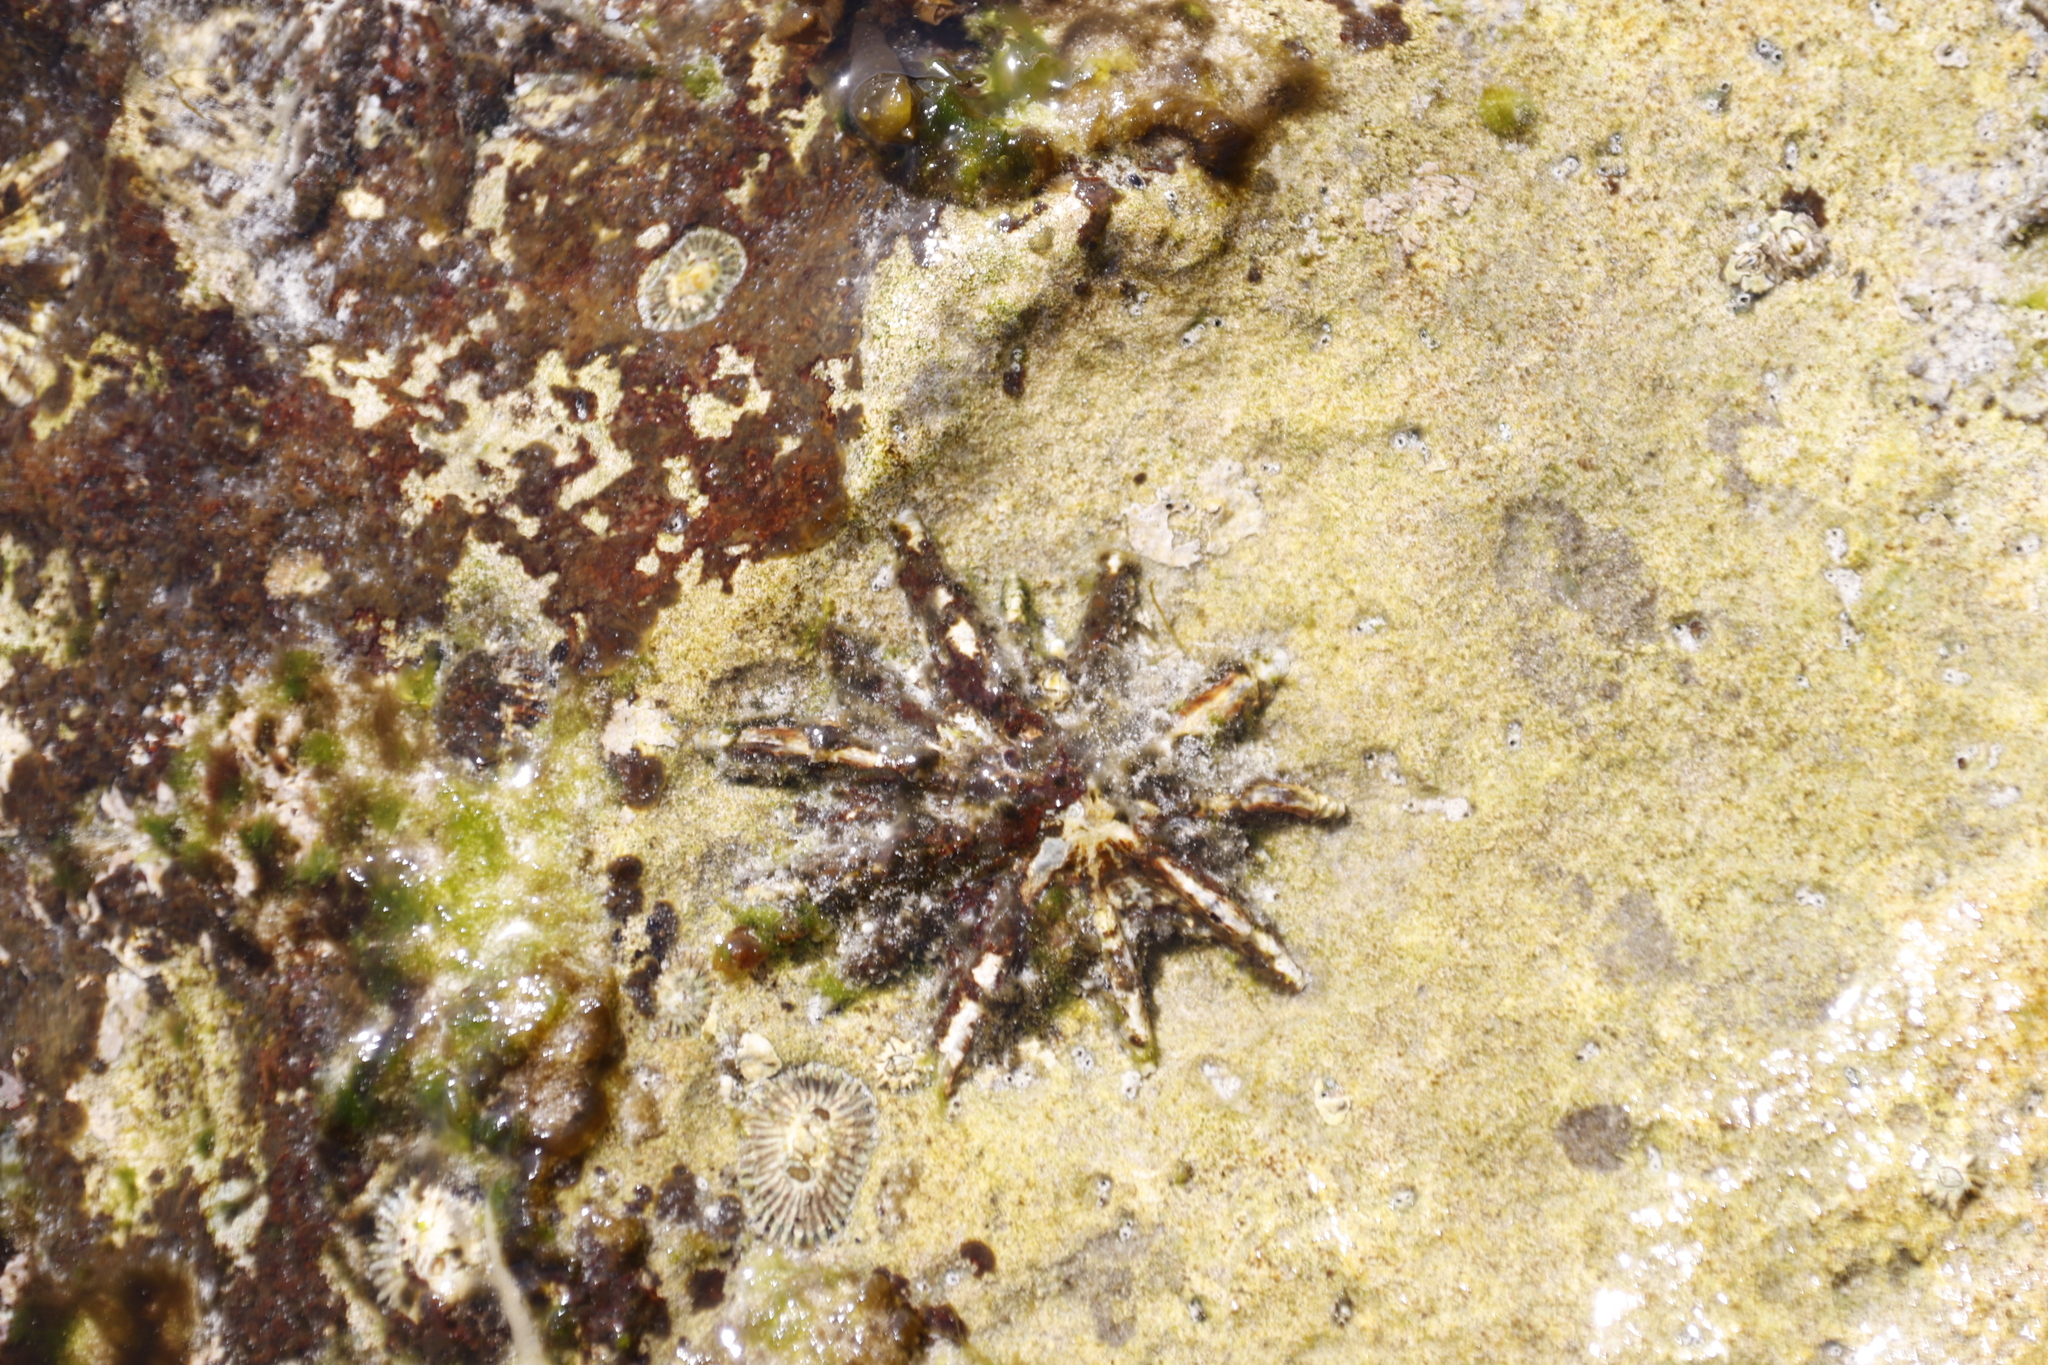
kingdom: Animalia
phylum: Mollusca
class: Gastropoda
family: Patellidae
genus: Scutellastra
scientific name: Scutellastra longicosta
